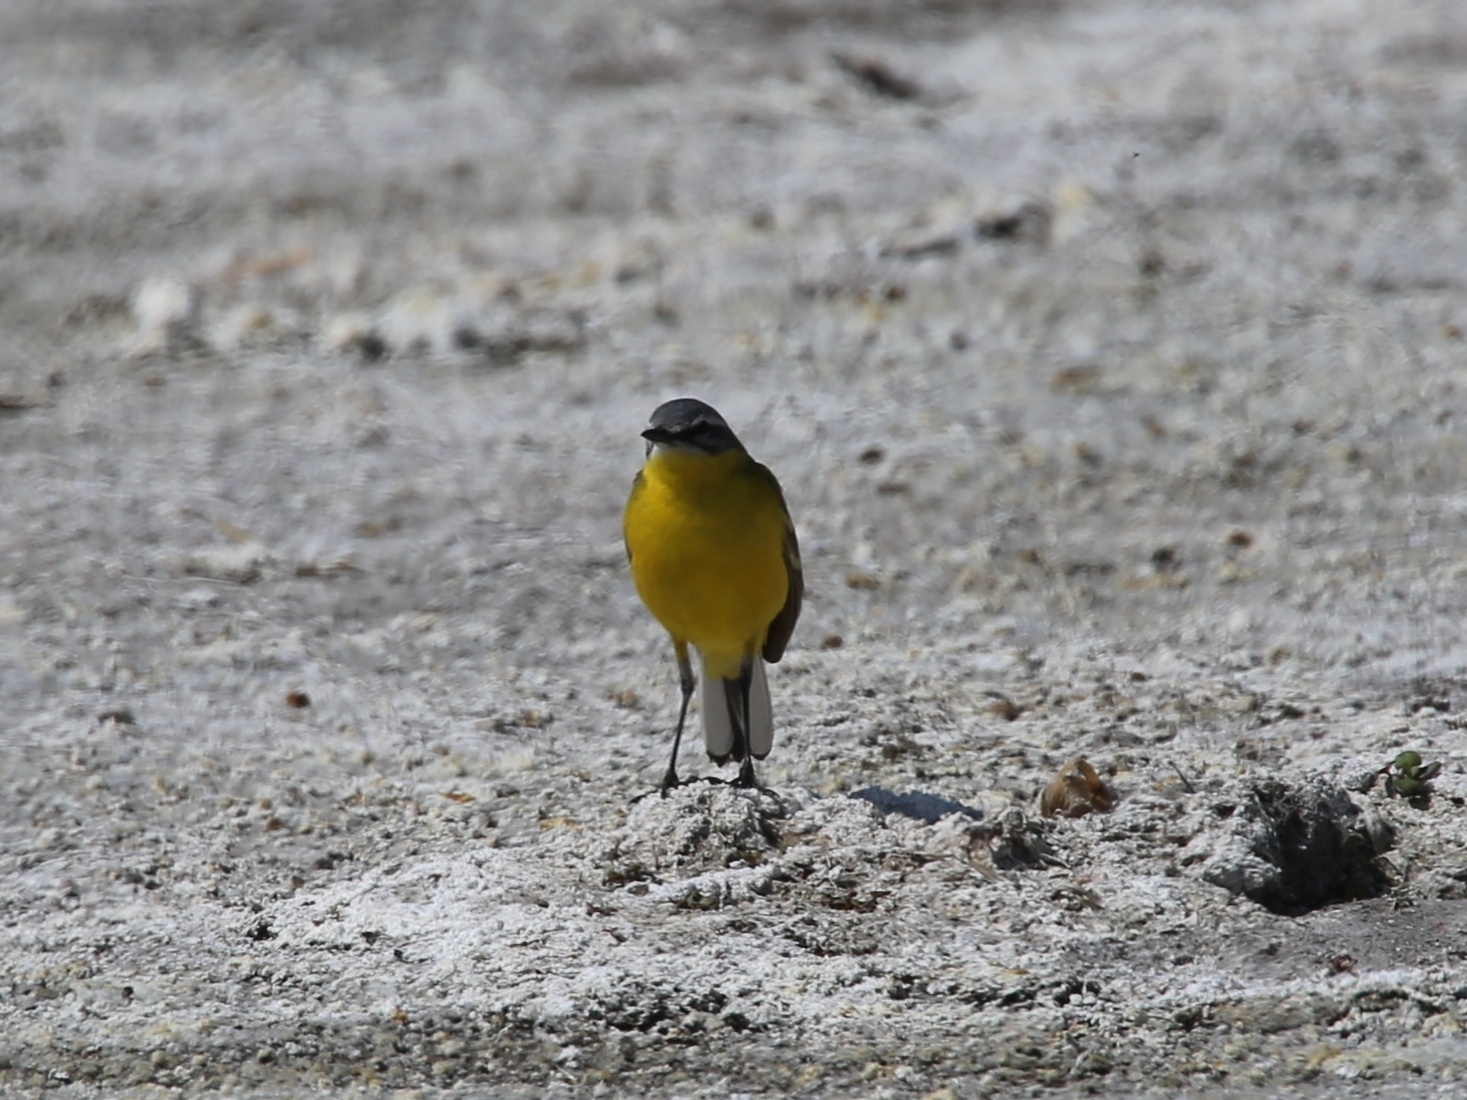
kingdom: Animalia
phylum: Chordata
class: Aves
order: Passeriformes
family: Motacillidae
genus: Motacilla
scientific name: Motacilla flava
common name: Western yellow wagtail
